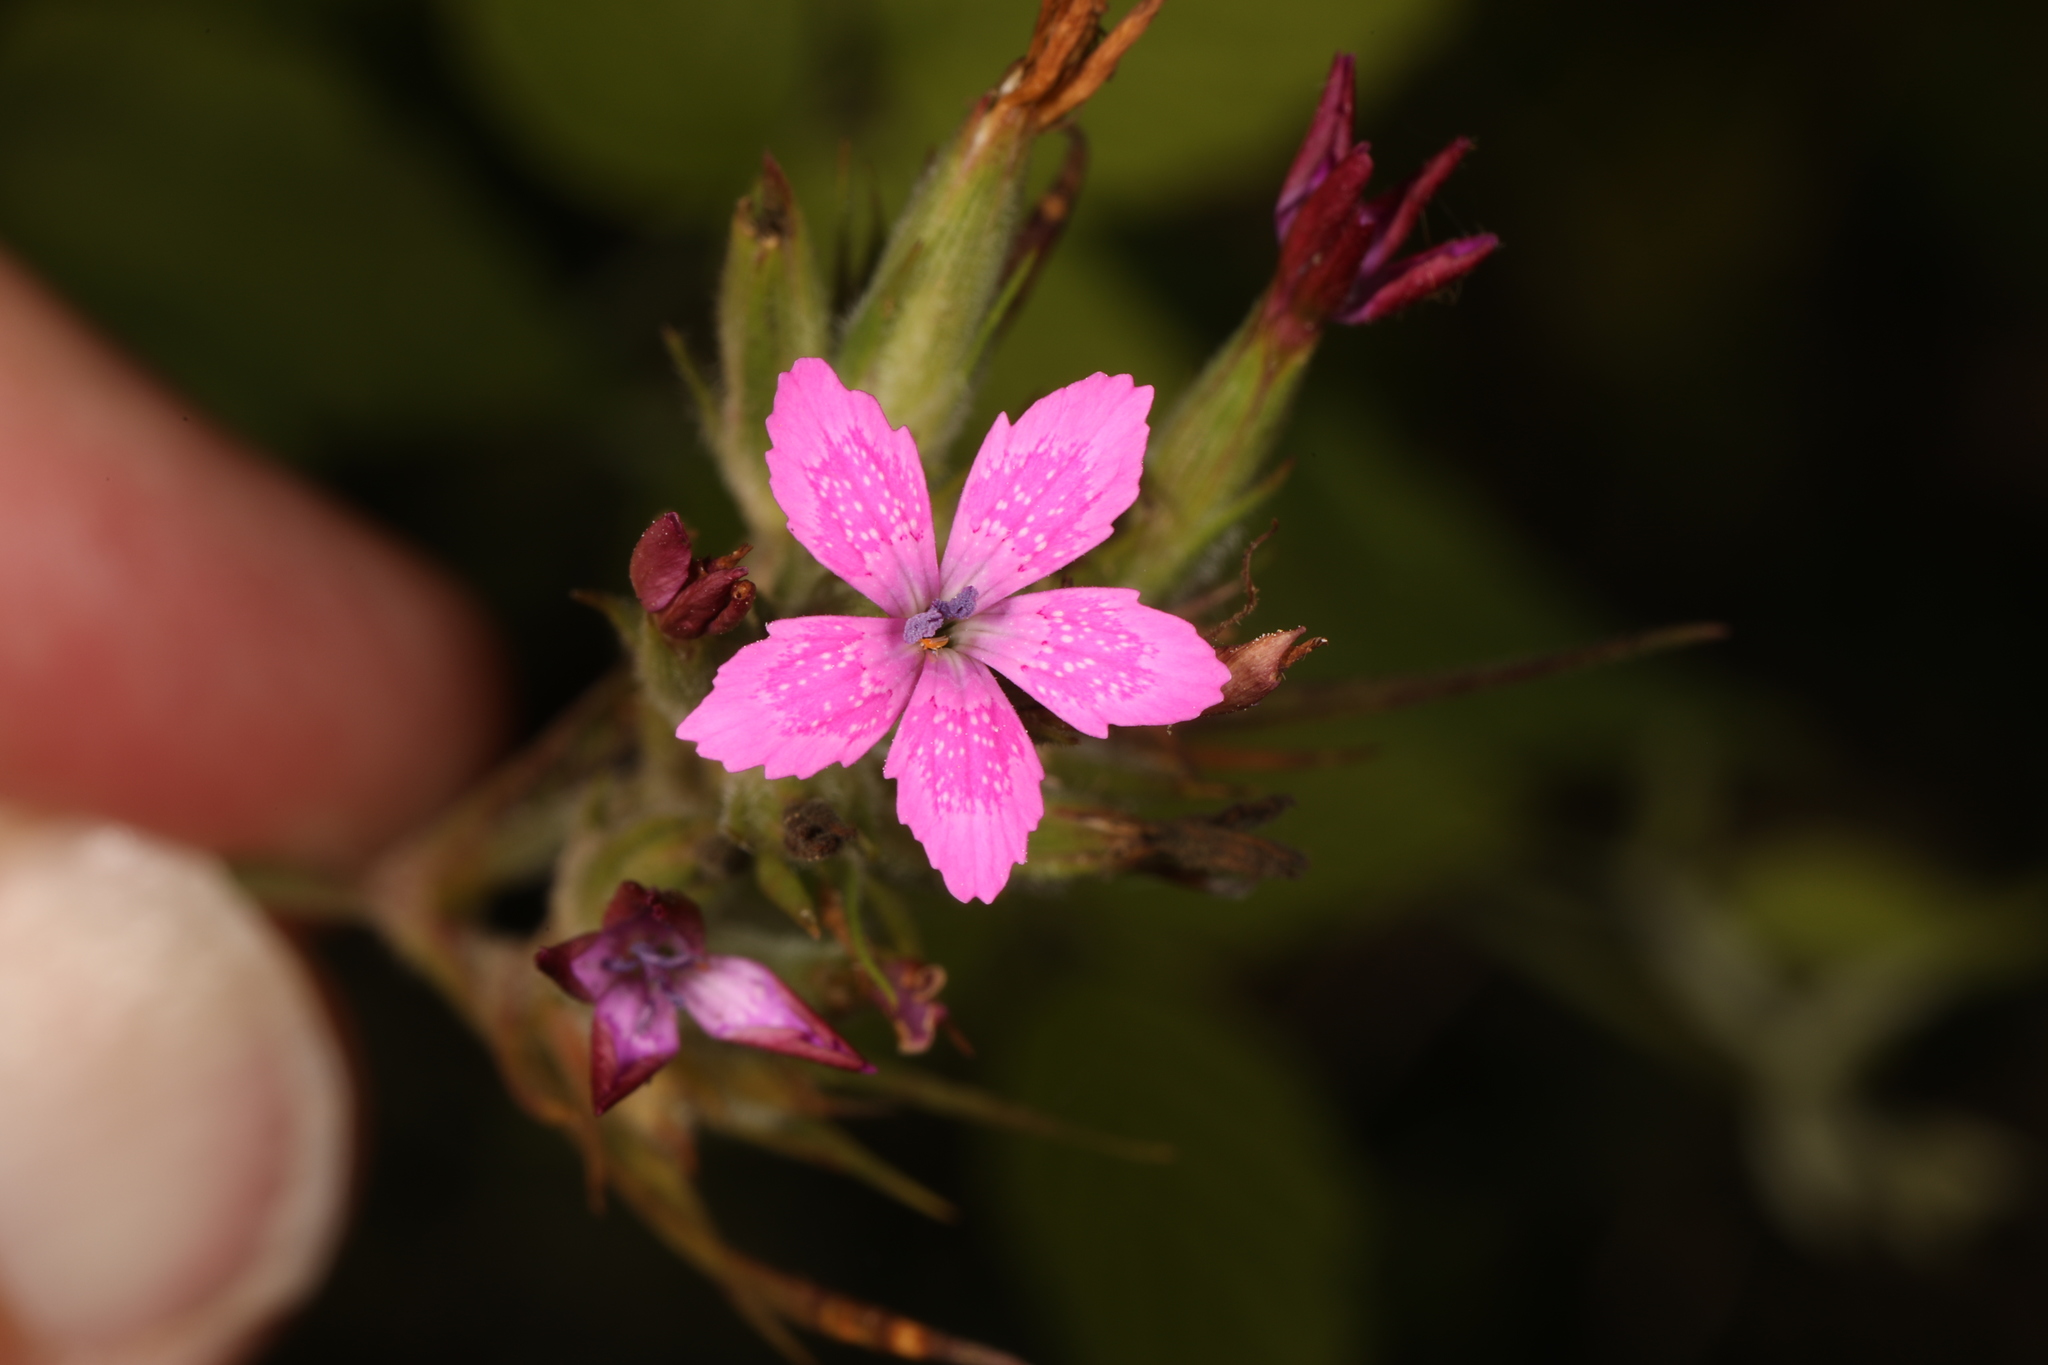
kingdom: Plantae
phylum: Tracheophyta
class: Magnoliopsida
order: Caryophyllales
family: Caryophyllaceae
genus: Dianthus
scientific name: Dianthus armeria
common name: Deptford pink
